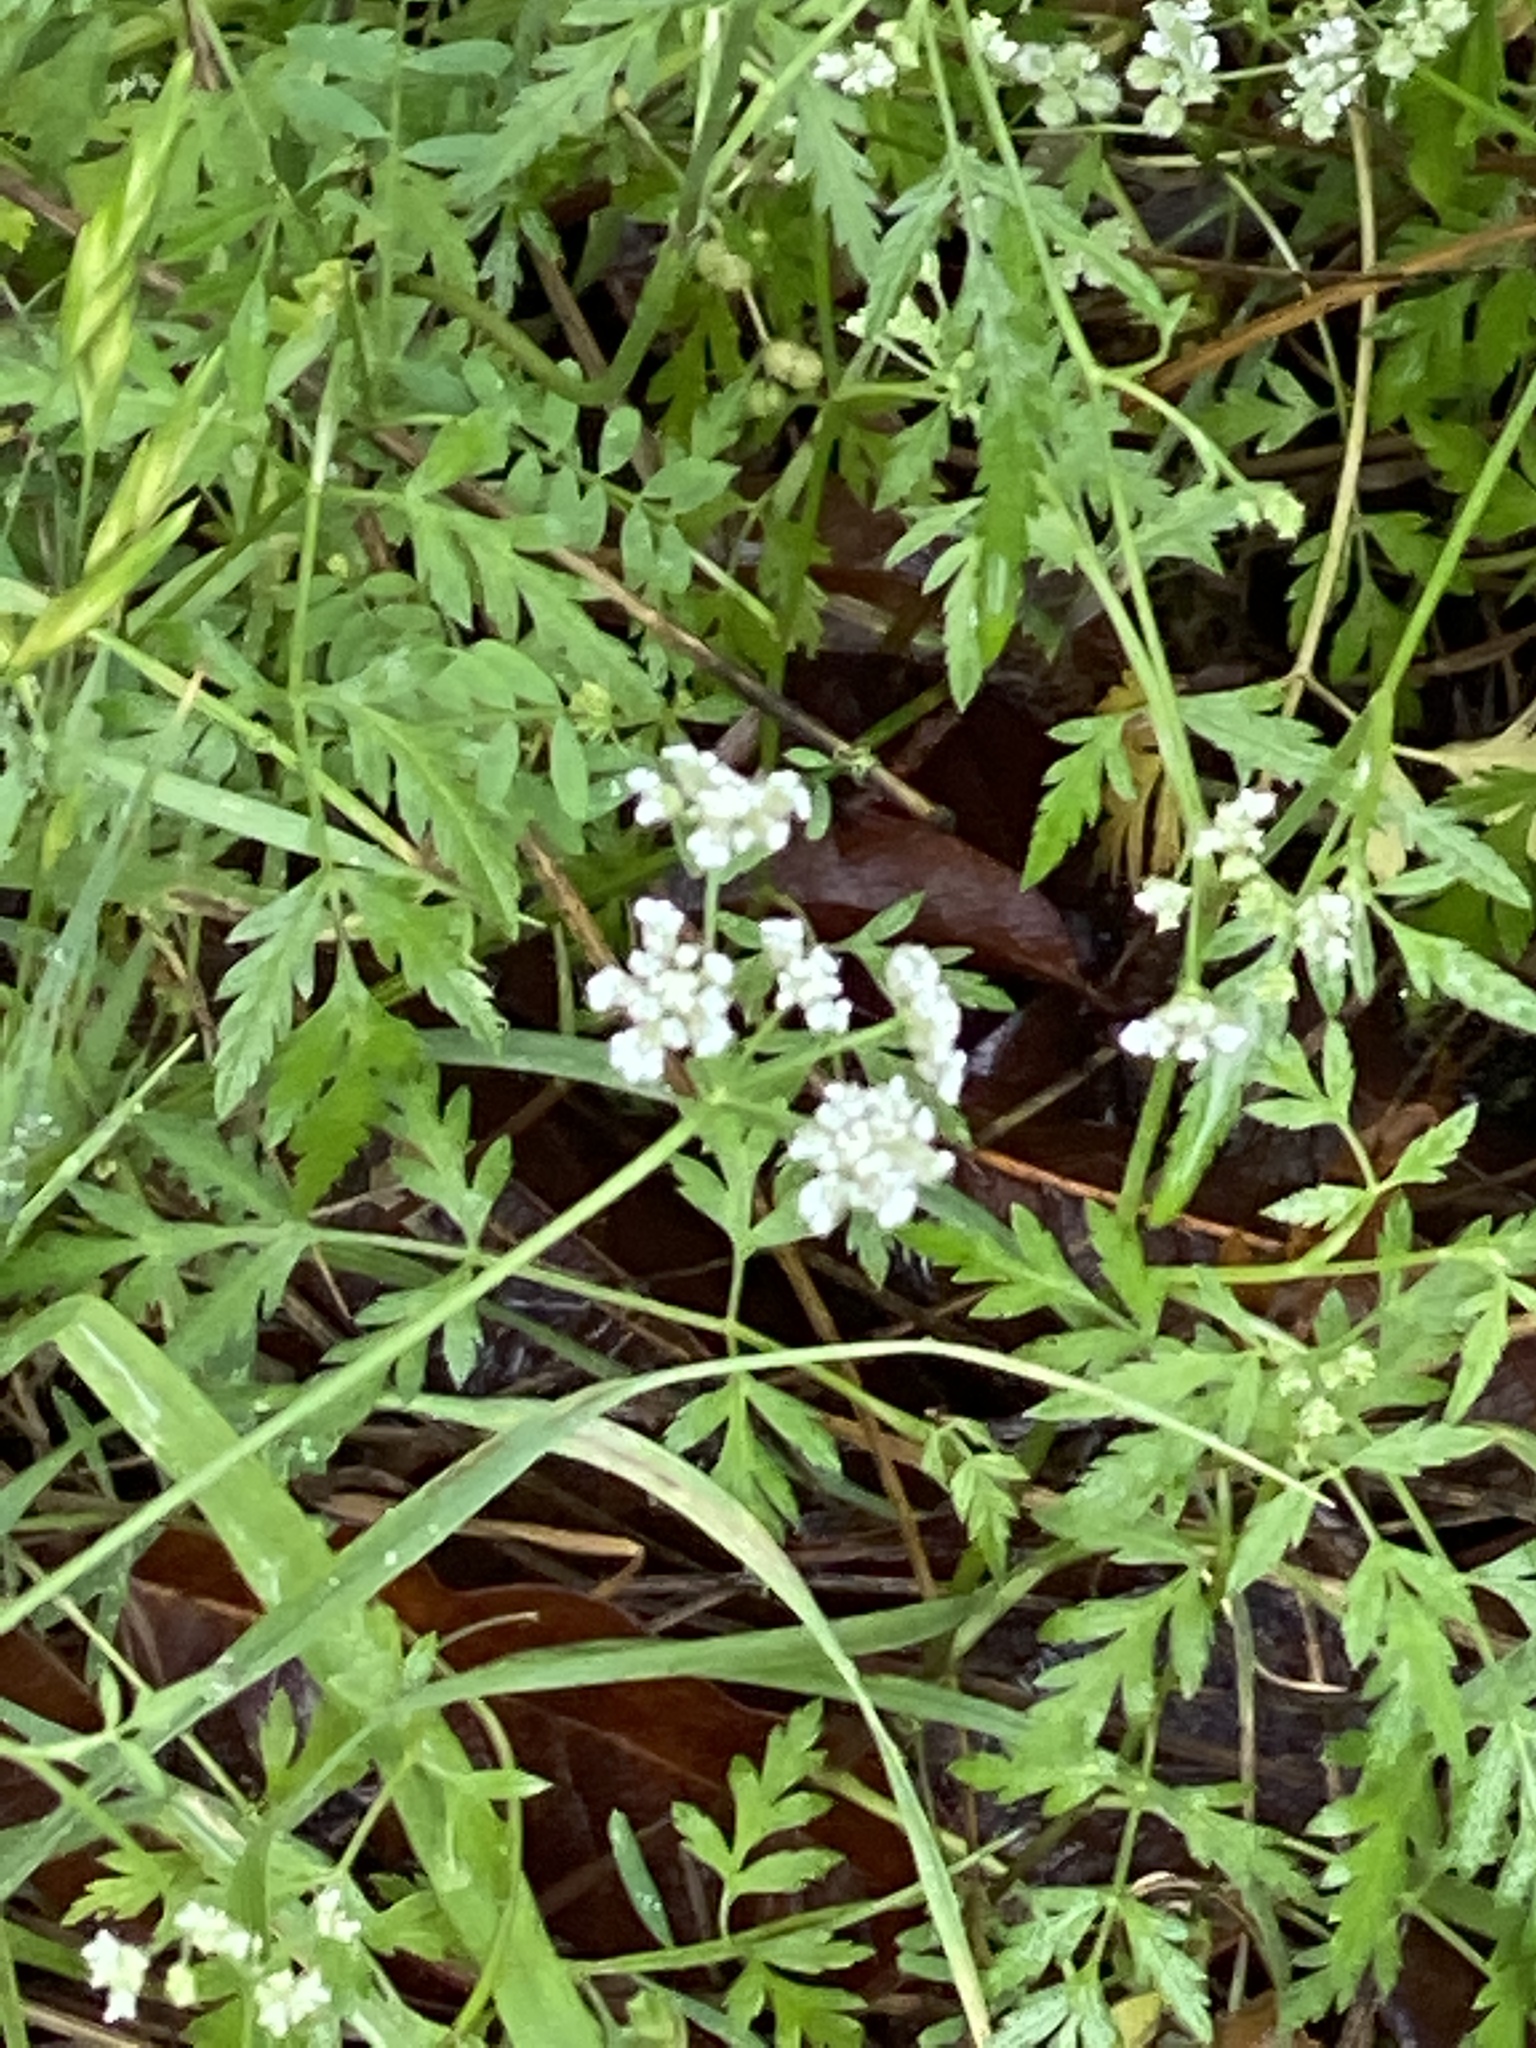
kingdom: Plantae
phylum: Tracheophyta
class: Magnoliopsida
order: Apiales
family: Apiaceae
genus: Torilis
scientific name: Torilis arvensis
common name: Spreading hedge-parsley
